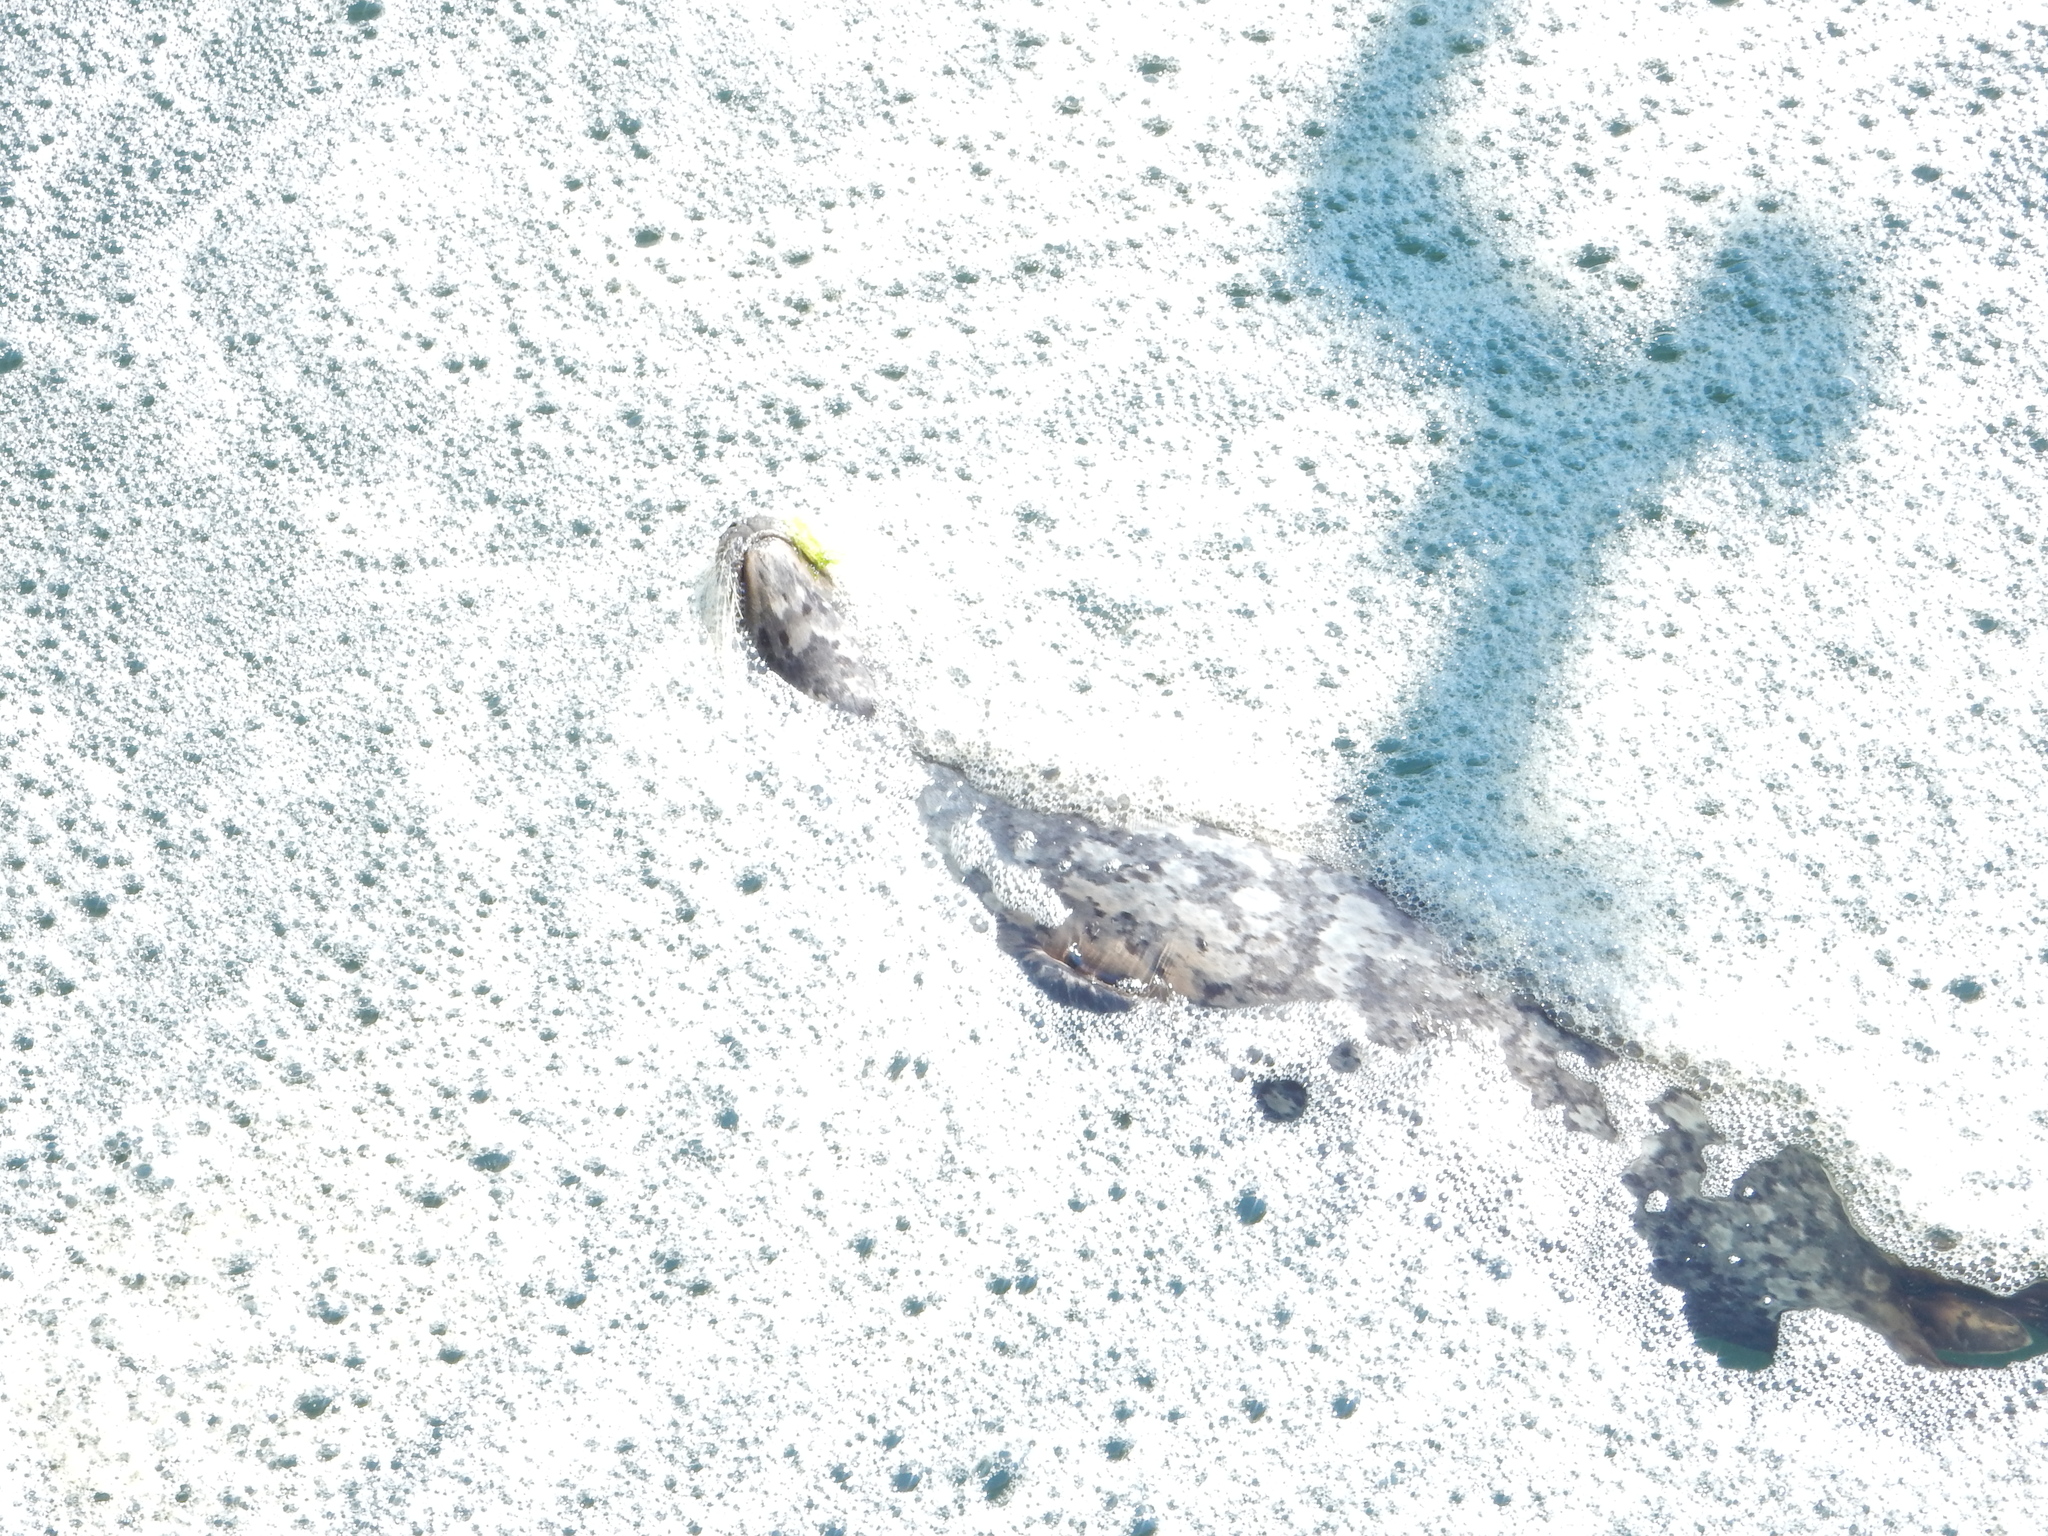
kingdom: Animalia
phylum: Chordata
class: Mammalia
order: Carnivora
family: Phocidae
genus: Phoca
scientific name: Phoca vitulina
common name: Harbor seal
